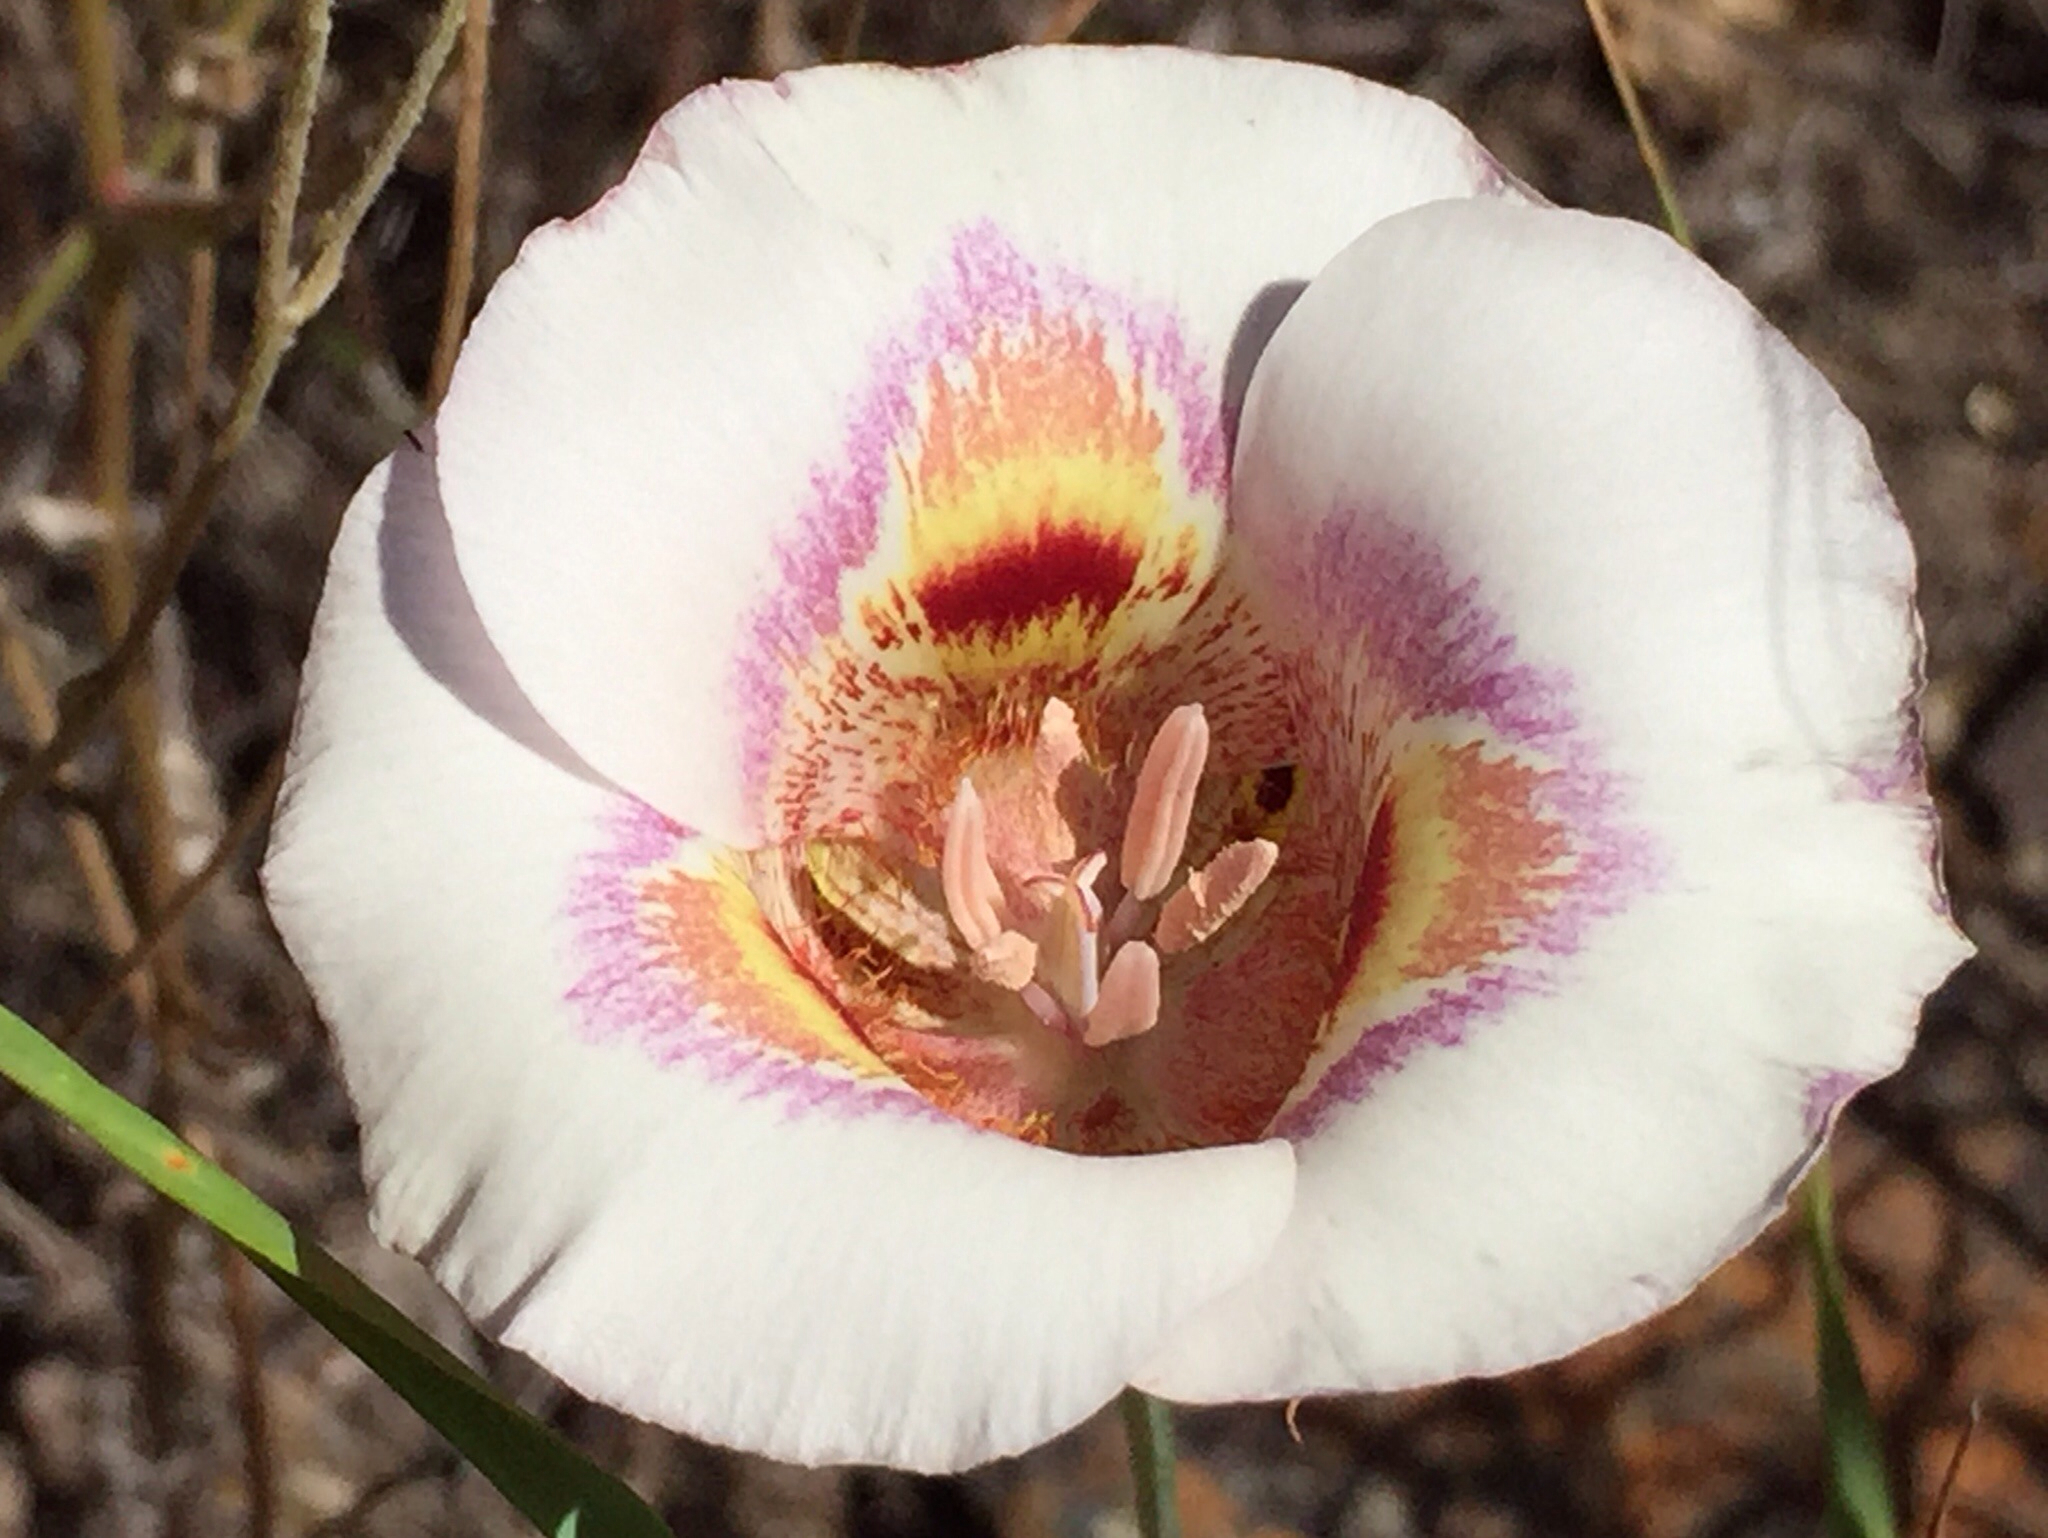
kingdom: Plantae
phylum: Tracheophyta
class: Liliopsida
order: Liliales
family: Liliaceae
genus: Calochortus
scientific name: Calochortus argillosus
